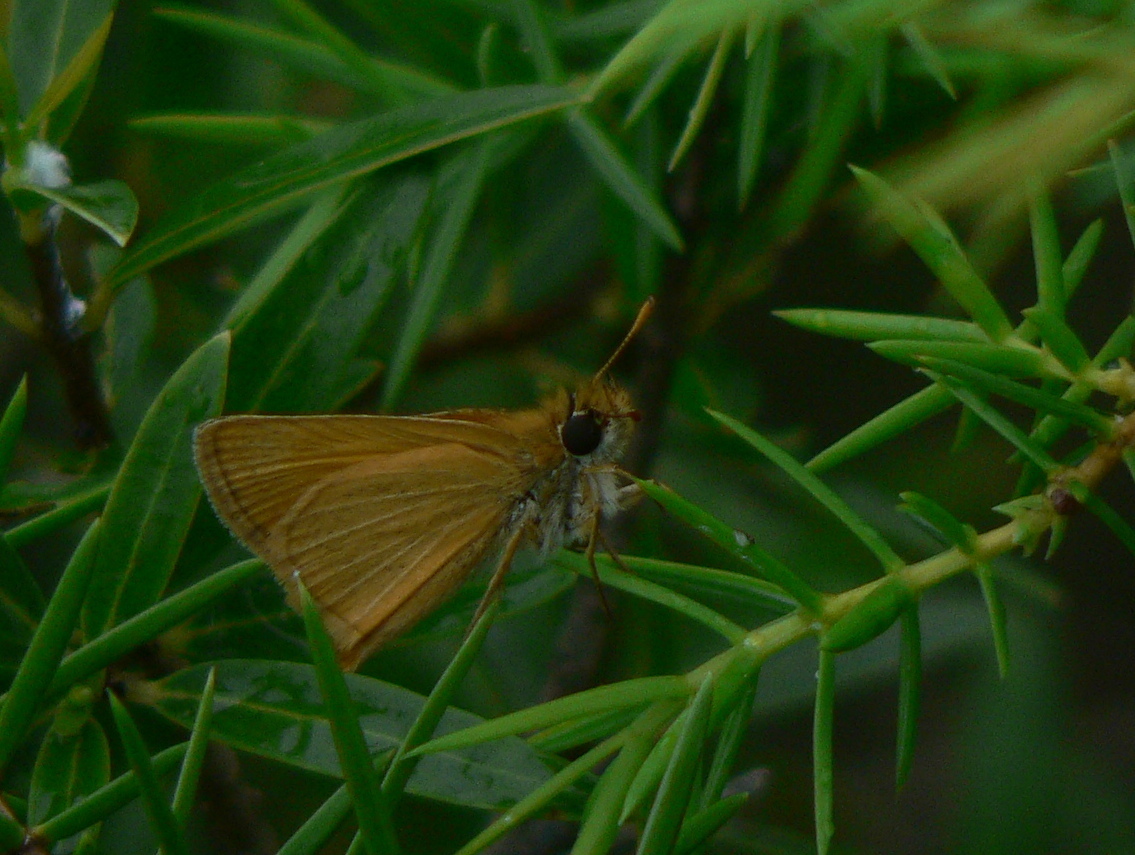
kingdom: Animalia
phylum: Arthropoda
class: Insecta
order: Lepidoptera
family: Hesperiidae
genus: Thymelicus
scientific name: Thymelicus acteon
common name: Lulworth skipper
